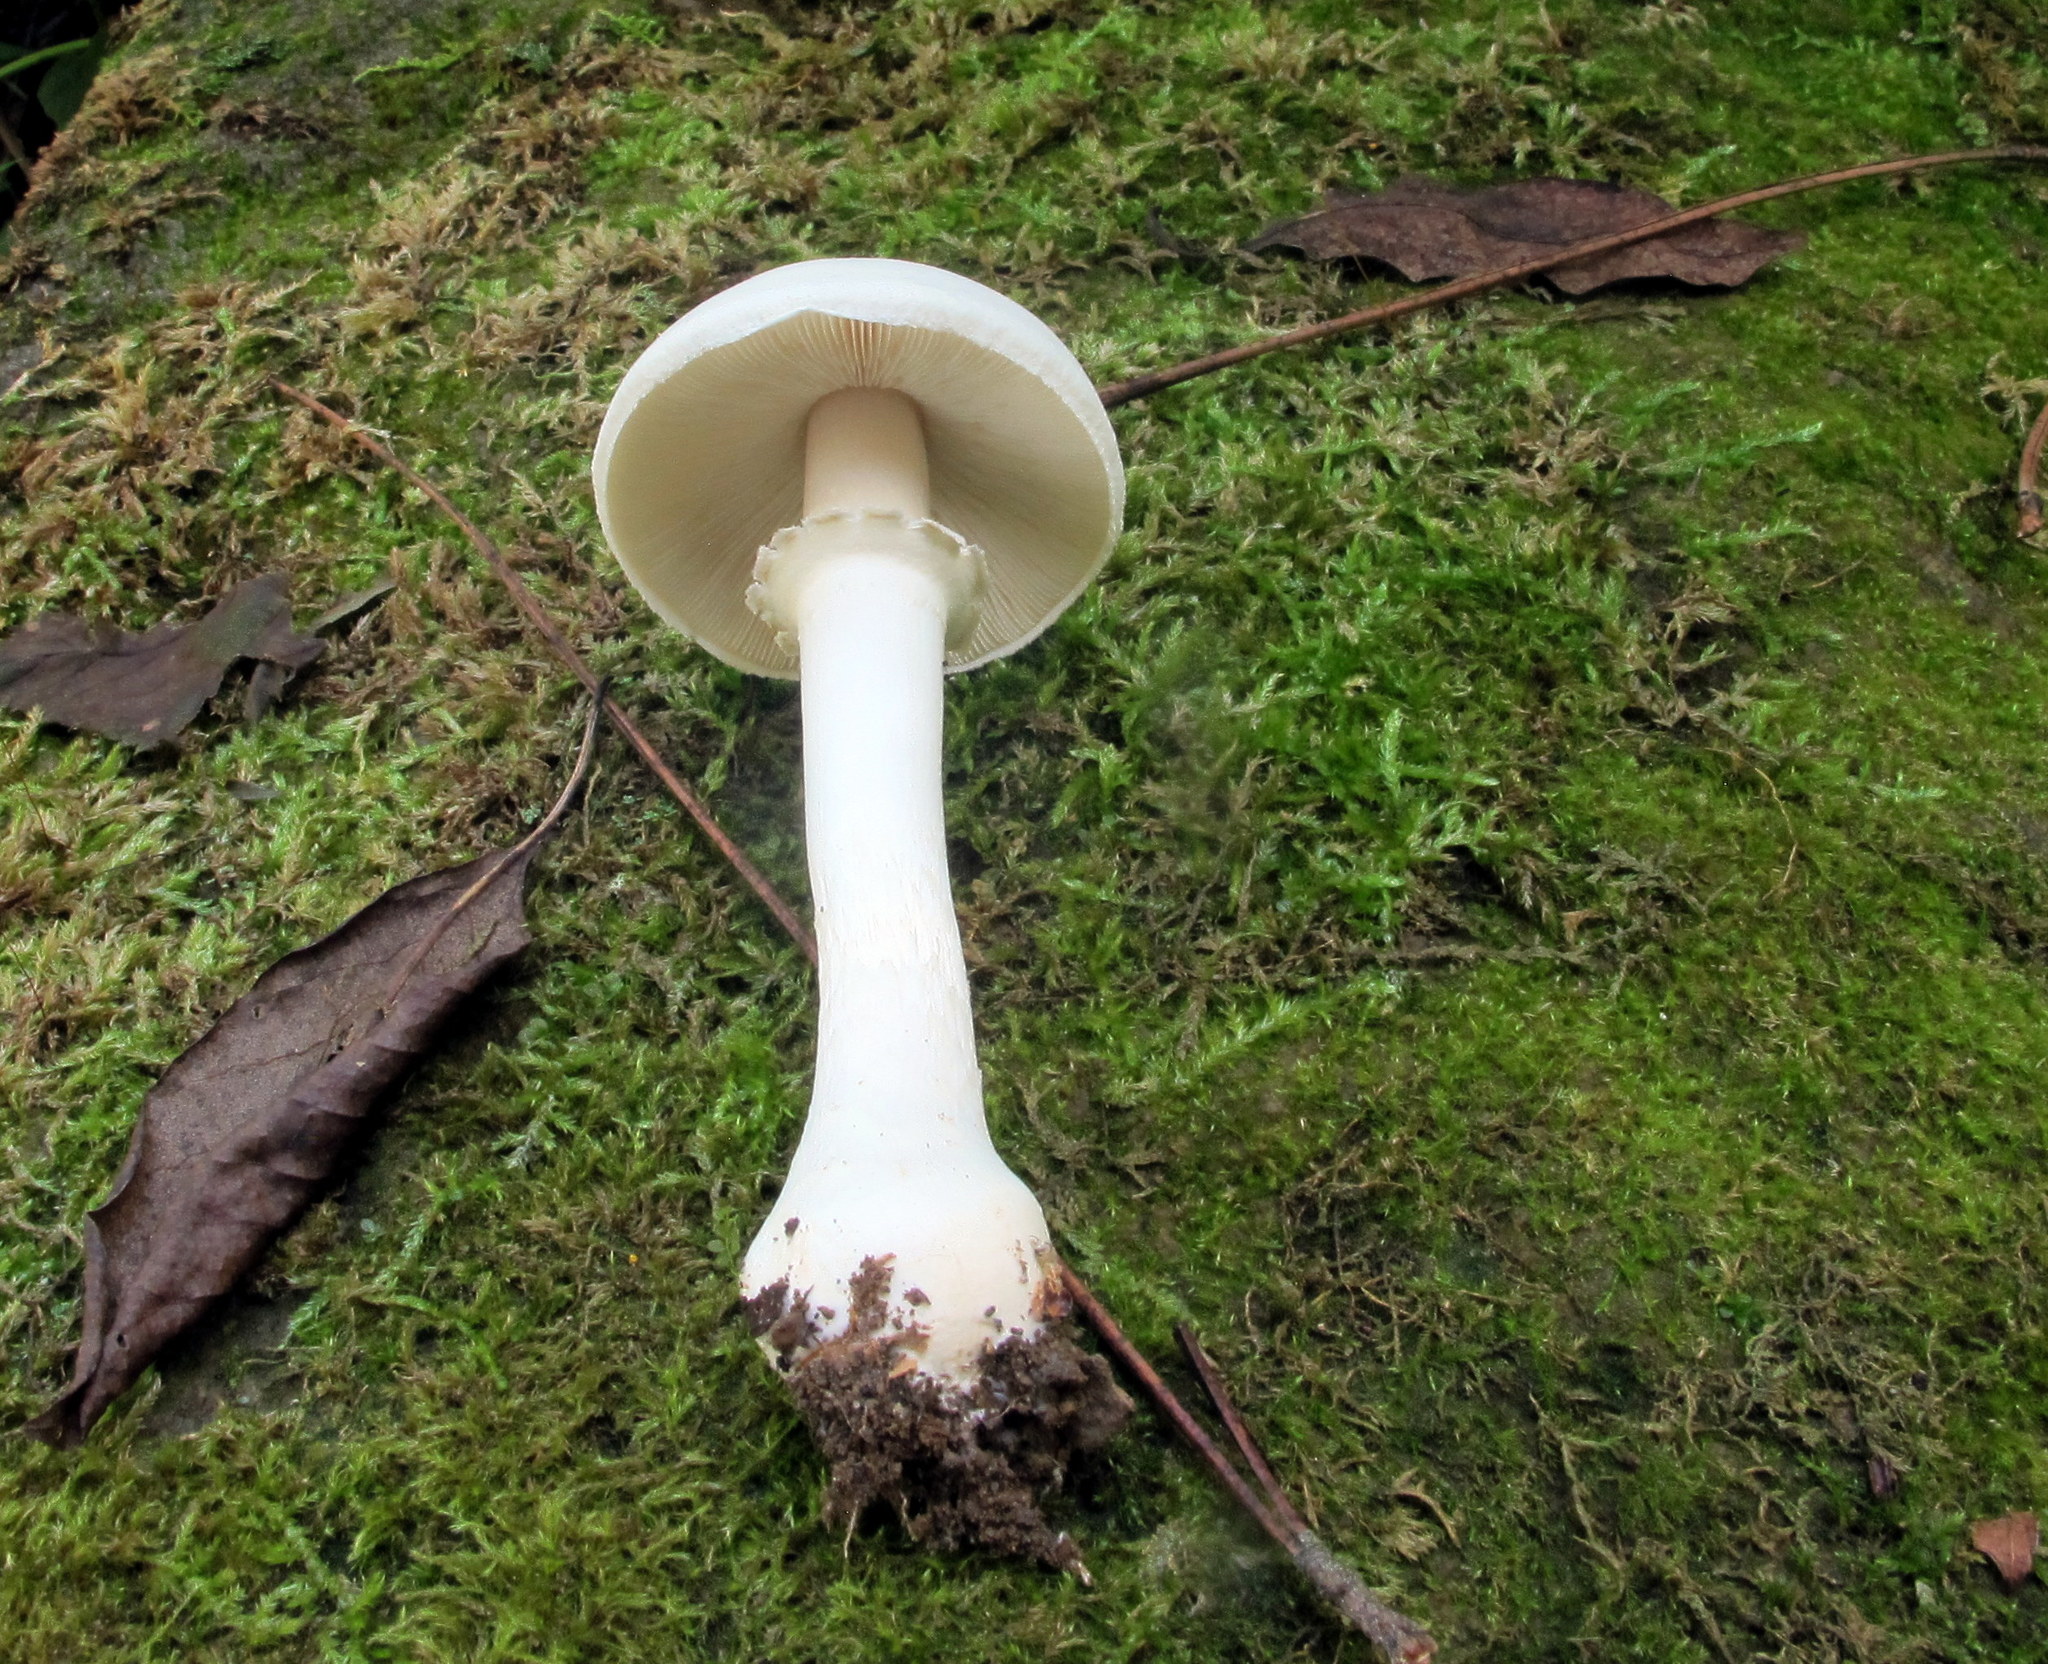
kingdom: Fungi
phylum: Basidiomycota
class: Agaricomycetes
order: Agaricales
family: Agaricaceae
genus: Leucoagaricus
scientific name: Leucoagaricus leucothites
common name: White dapperling
